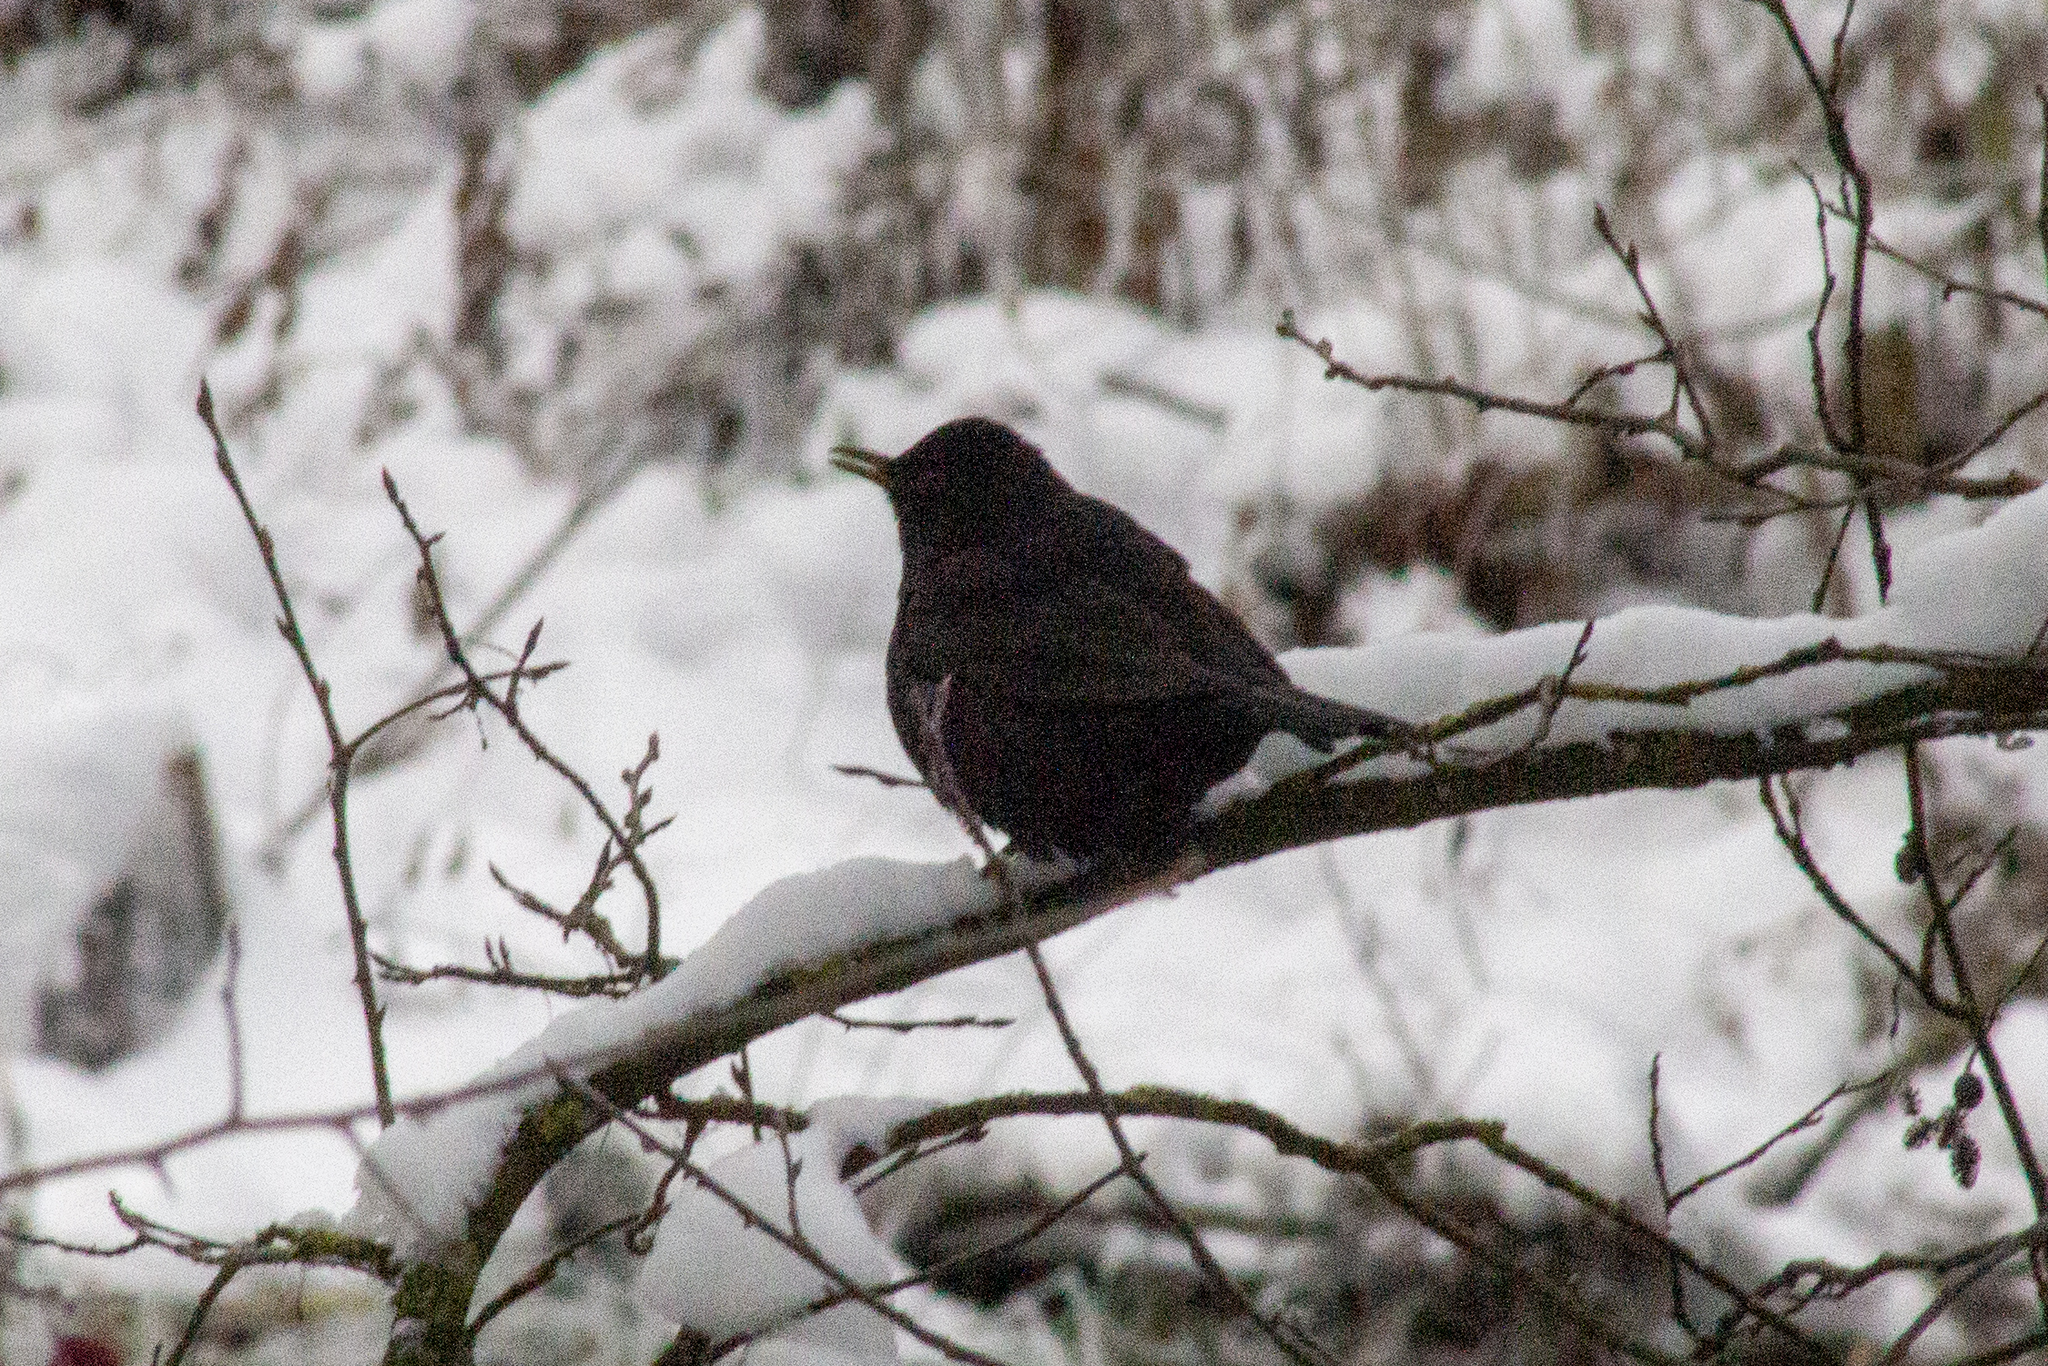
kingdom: Animalia
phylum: Chordata
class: Aves
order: Passeriformes
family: Turdidae
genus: Turdus
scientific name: Turdus merula
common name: Common blackbird
